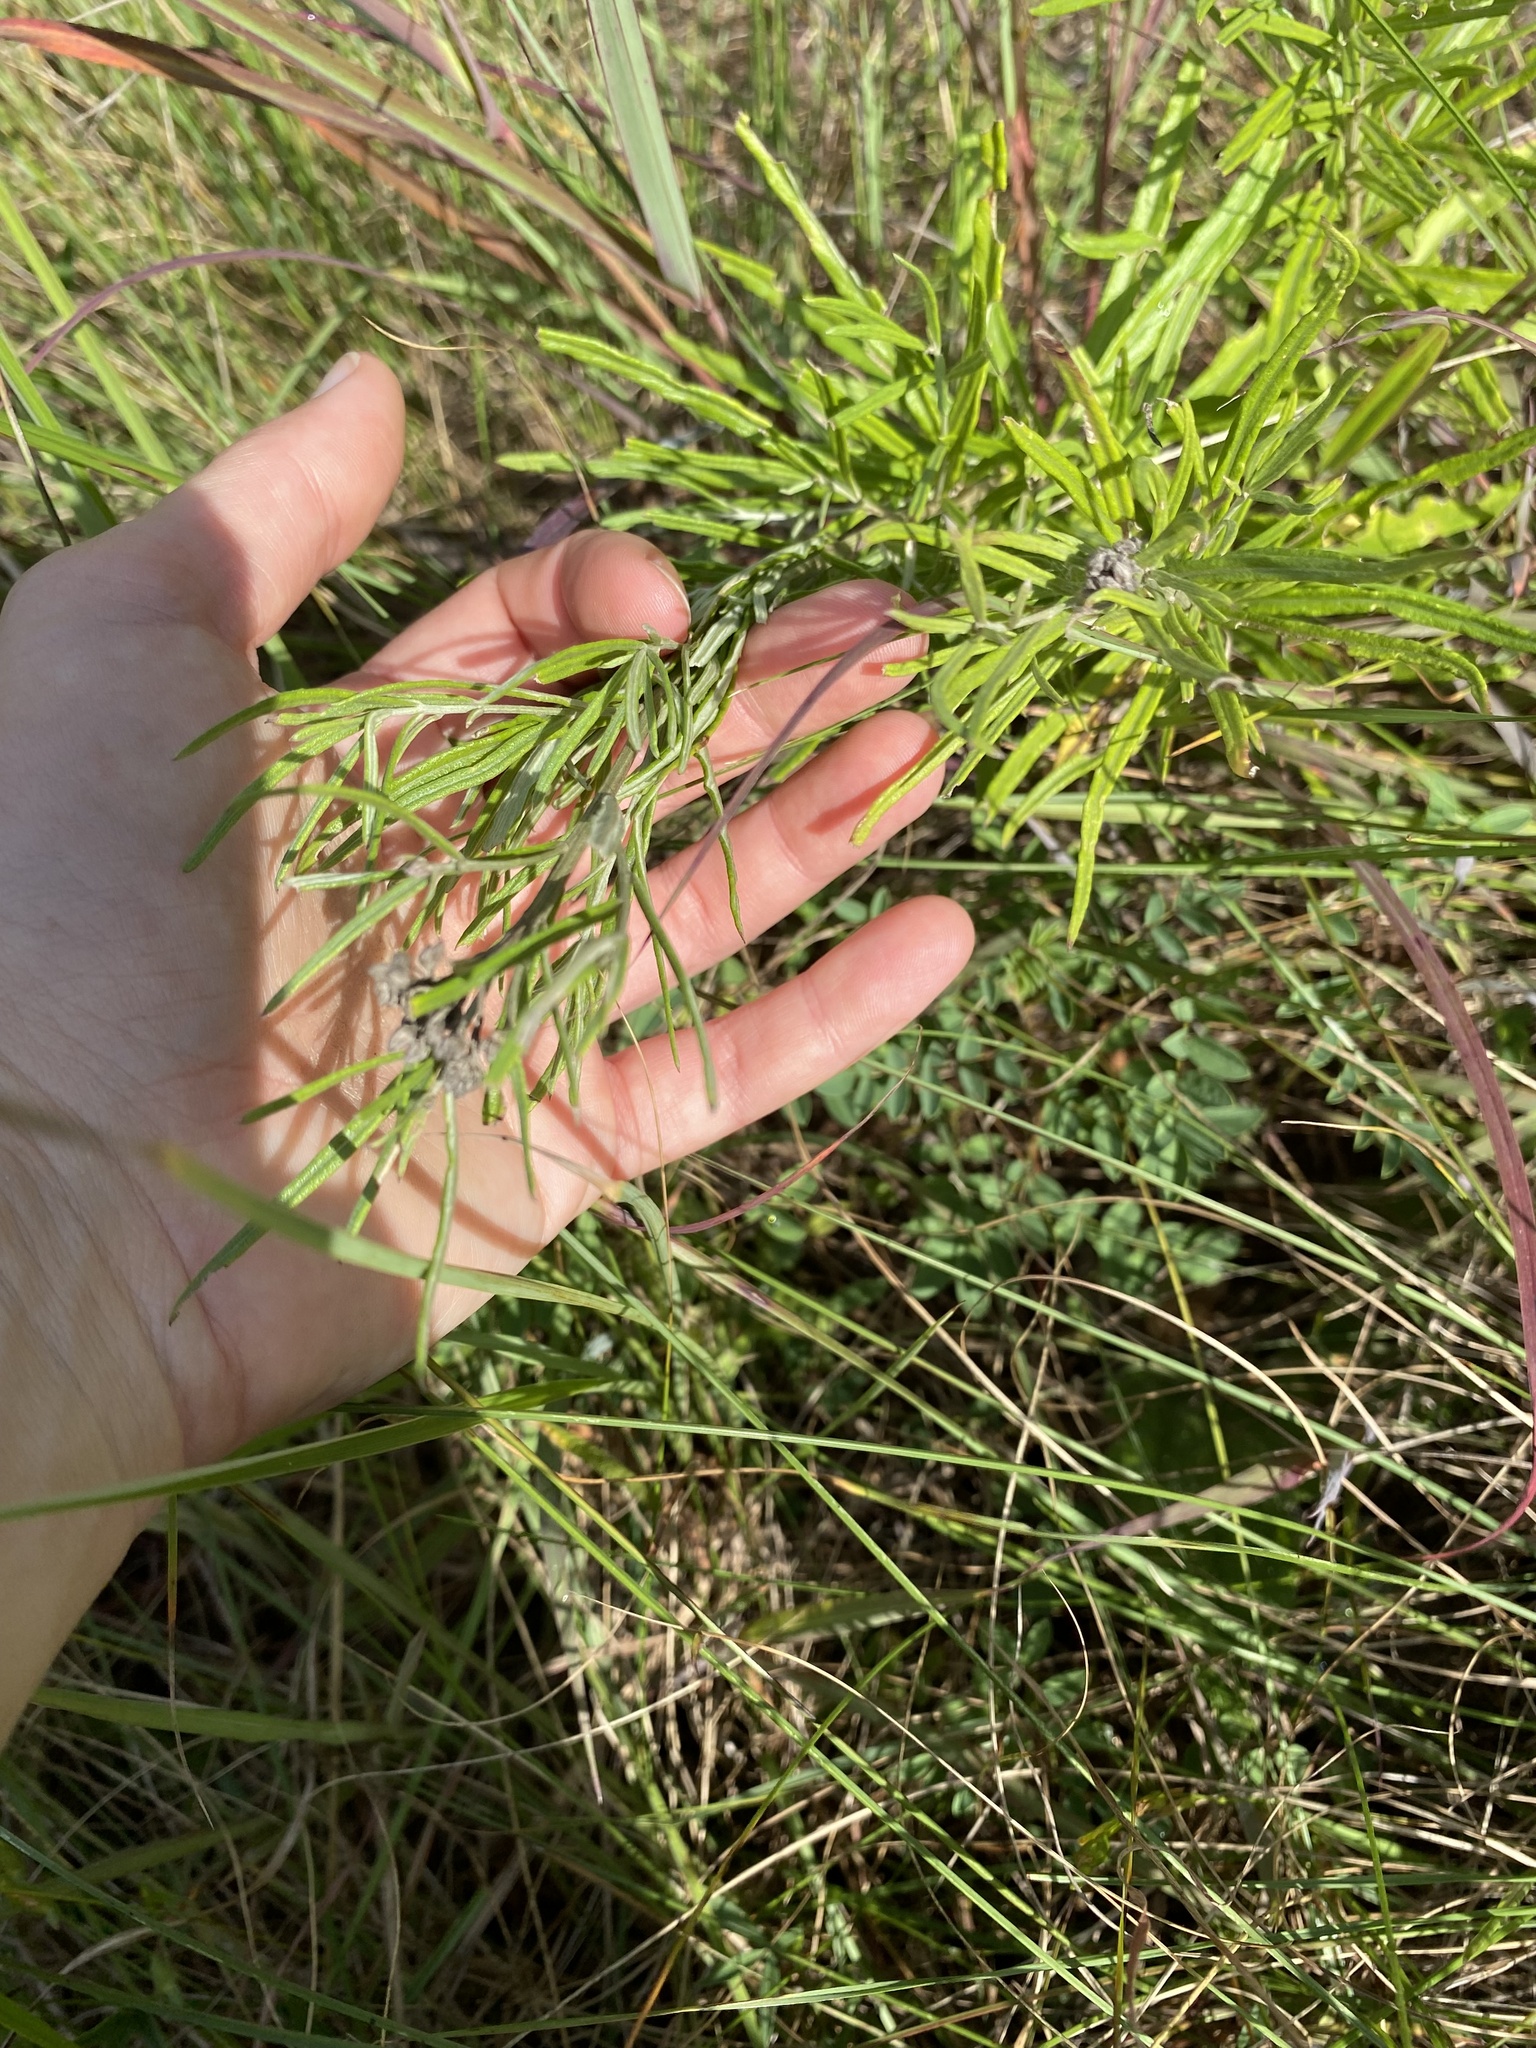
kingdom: Plantae
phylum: Tracheophyta
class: Magnoliopsida
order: Asterales
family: Asteraceae
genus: Hilliardiella
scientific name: Hilliardiella capensis
